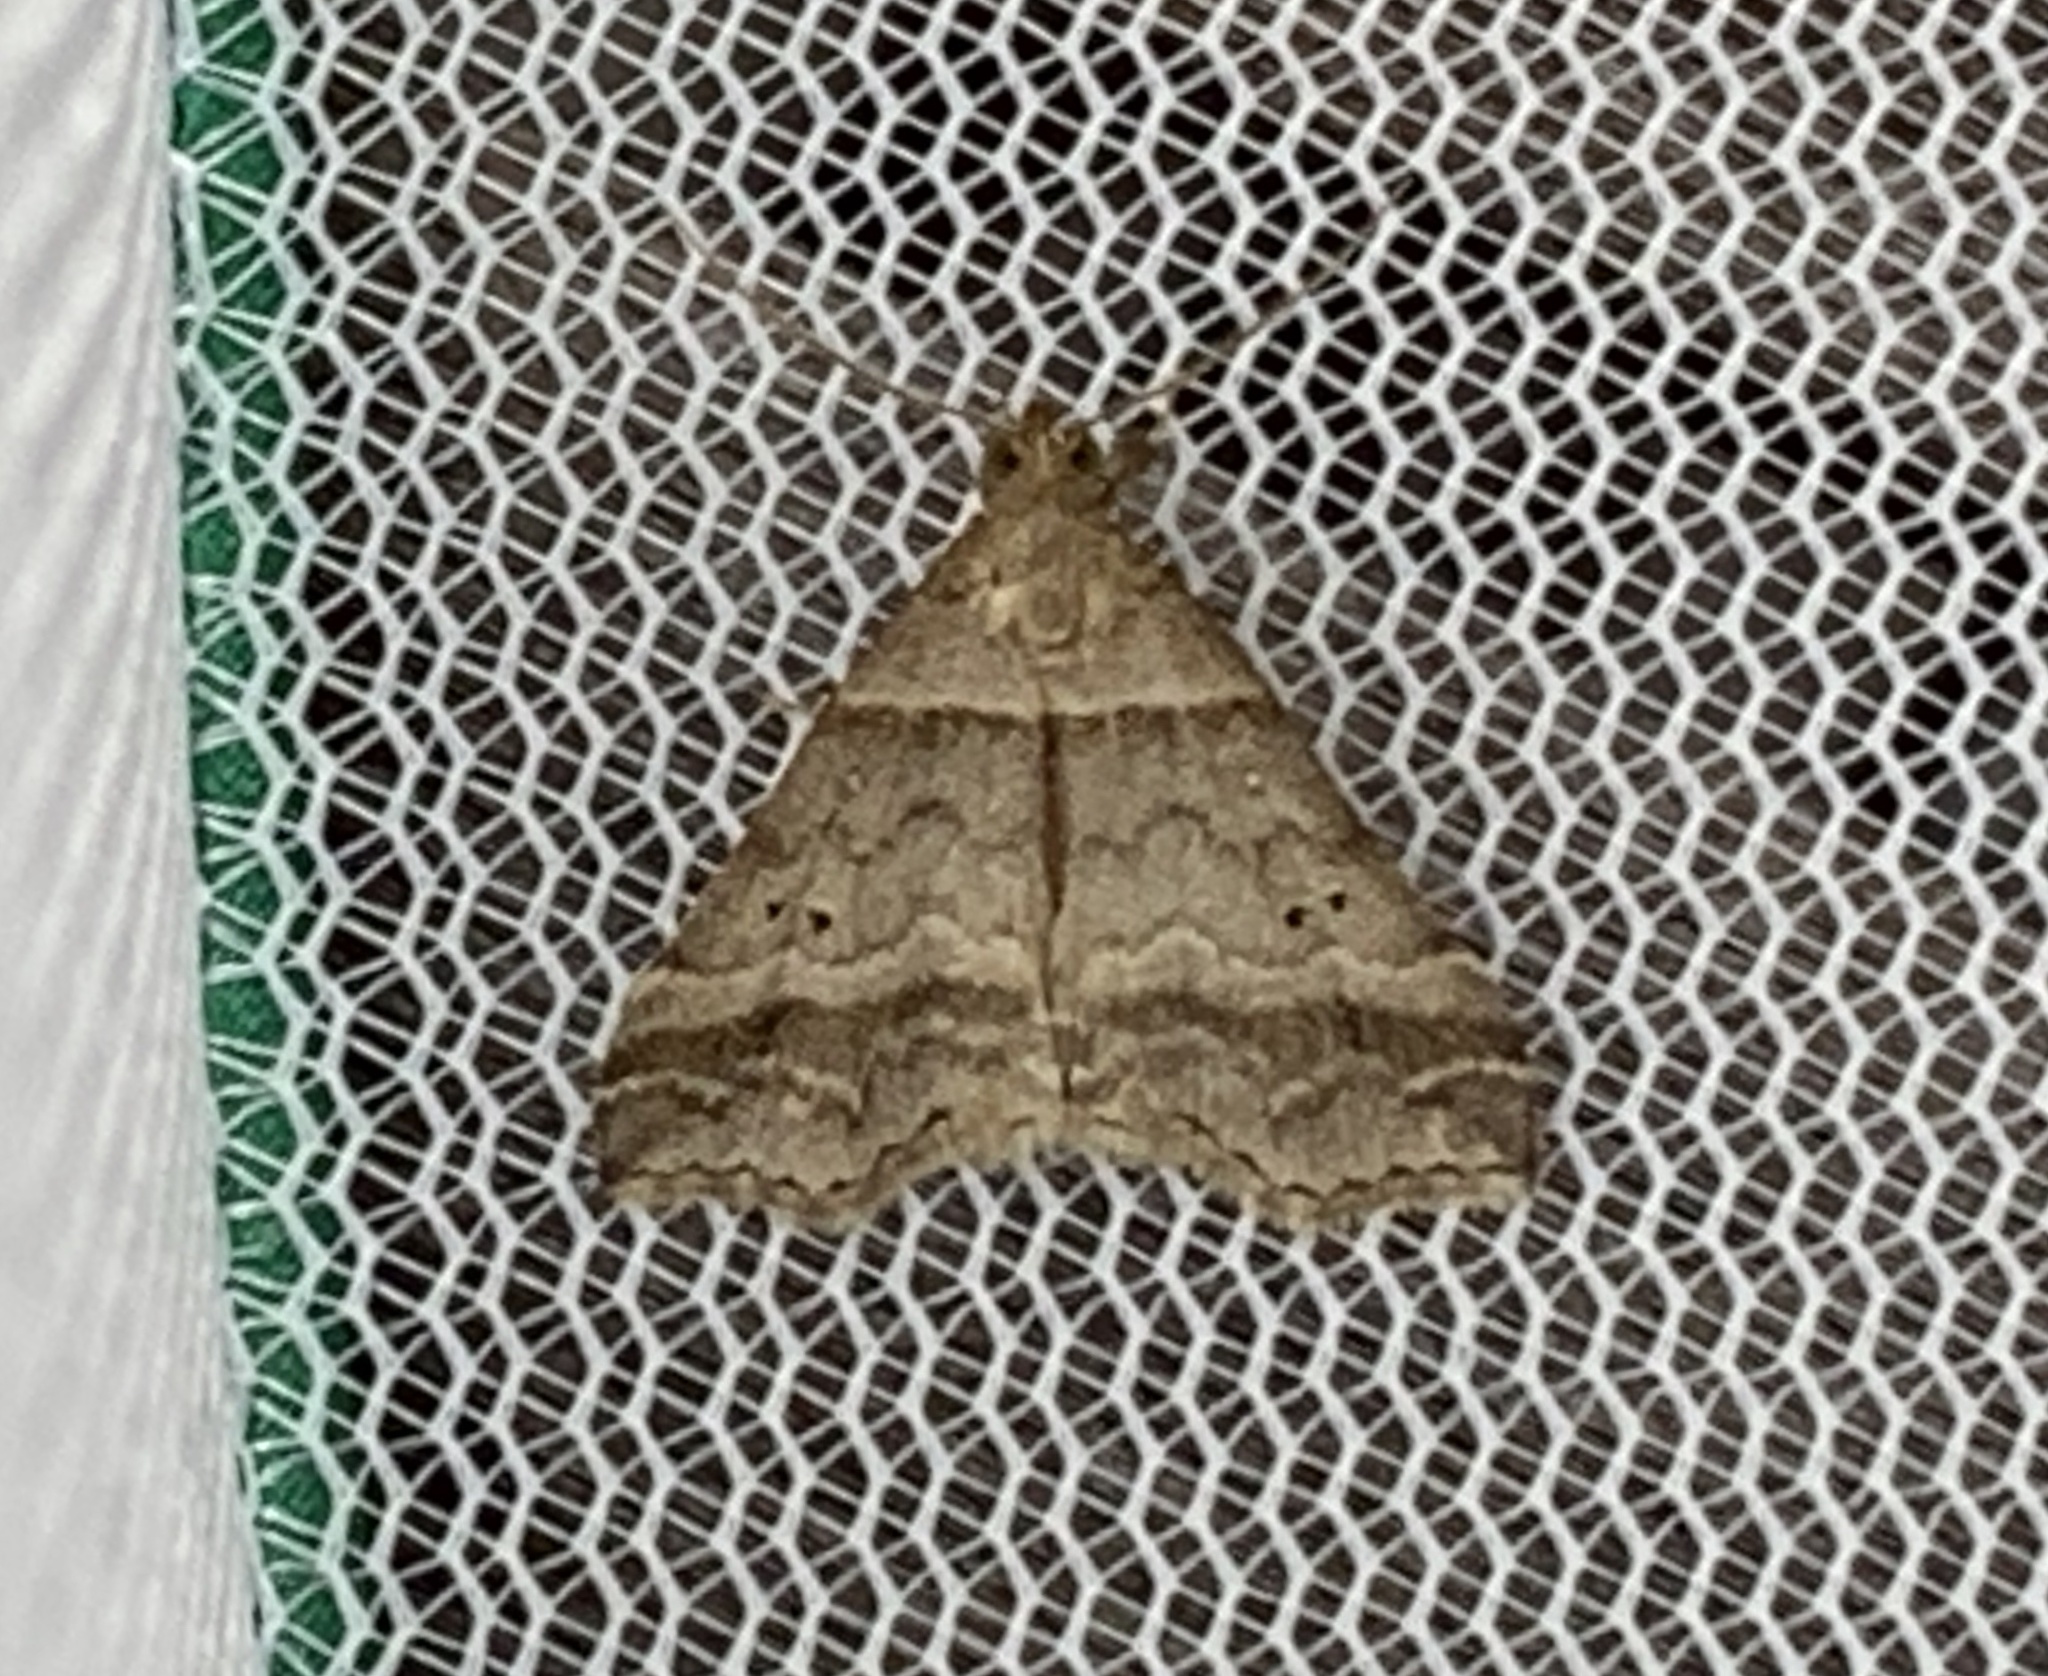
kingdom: Animalia
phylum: Arthropoda
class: Insecta
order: Lepidoptera
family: Erebidae
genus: Phaeolita
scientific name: Phaeolita pyramusalis
